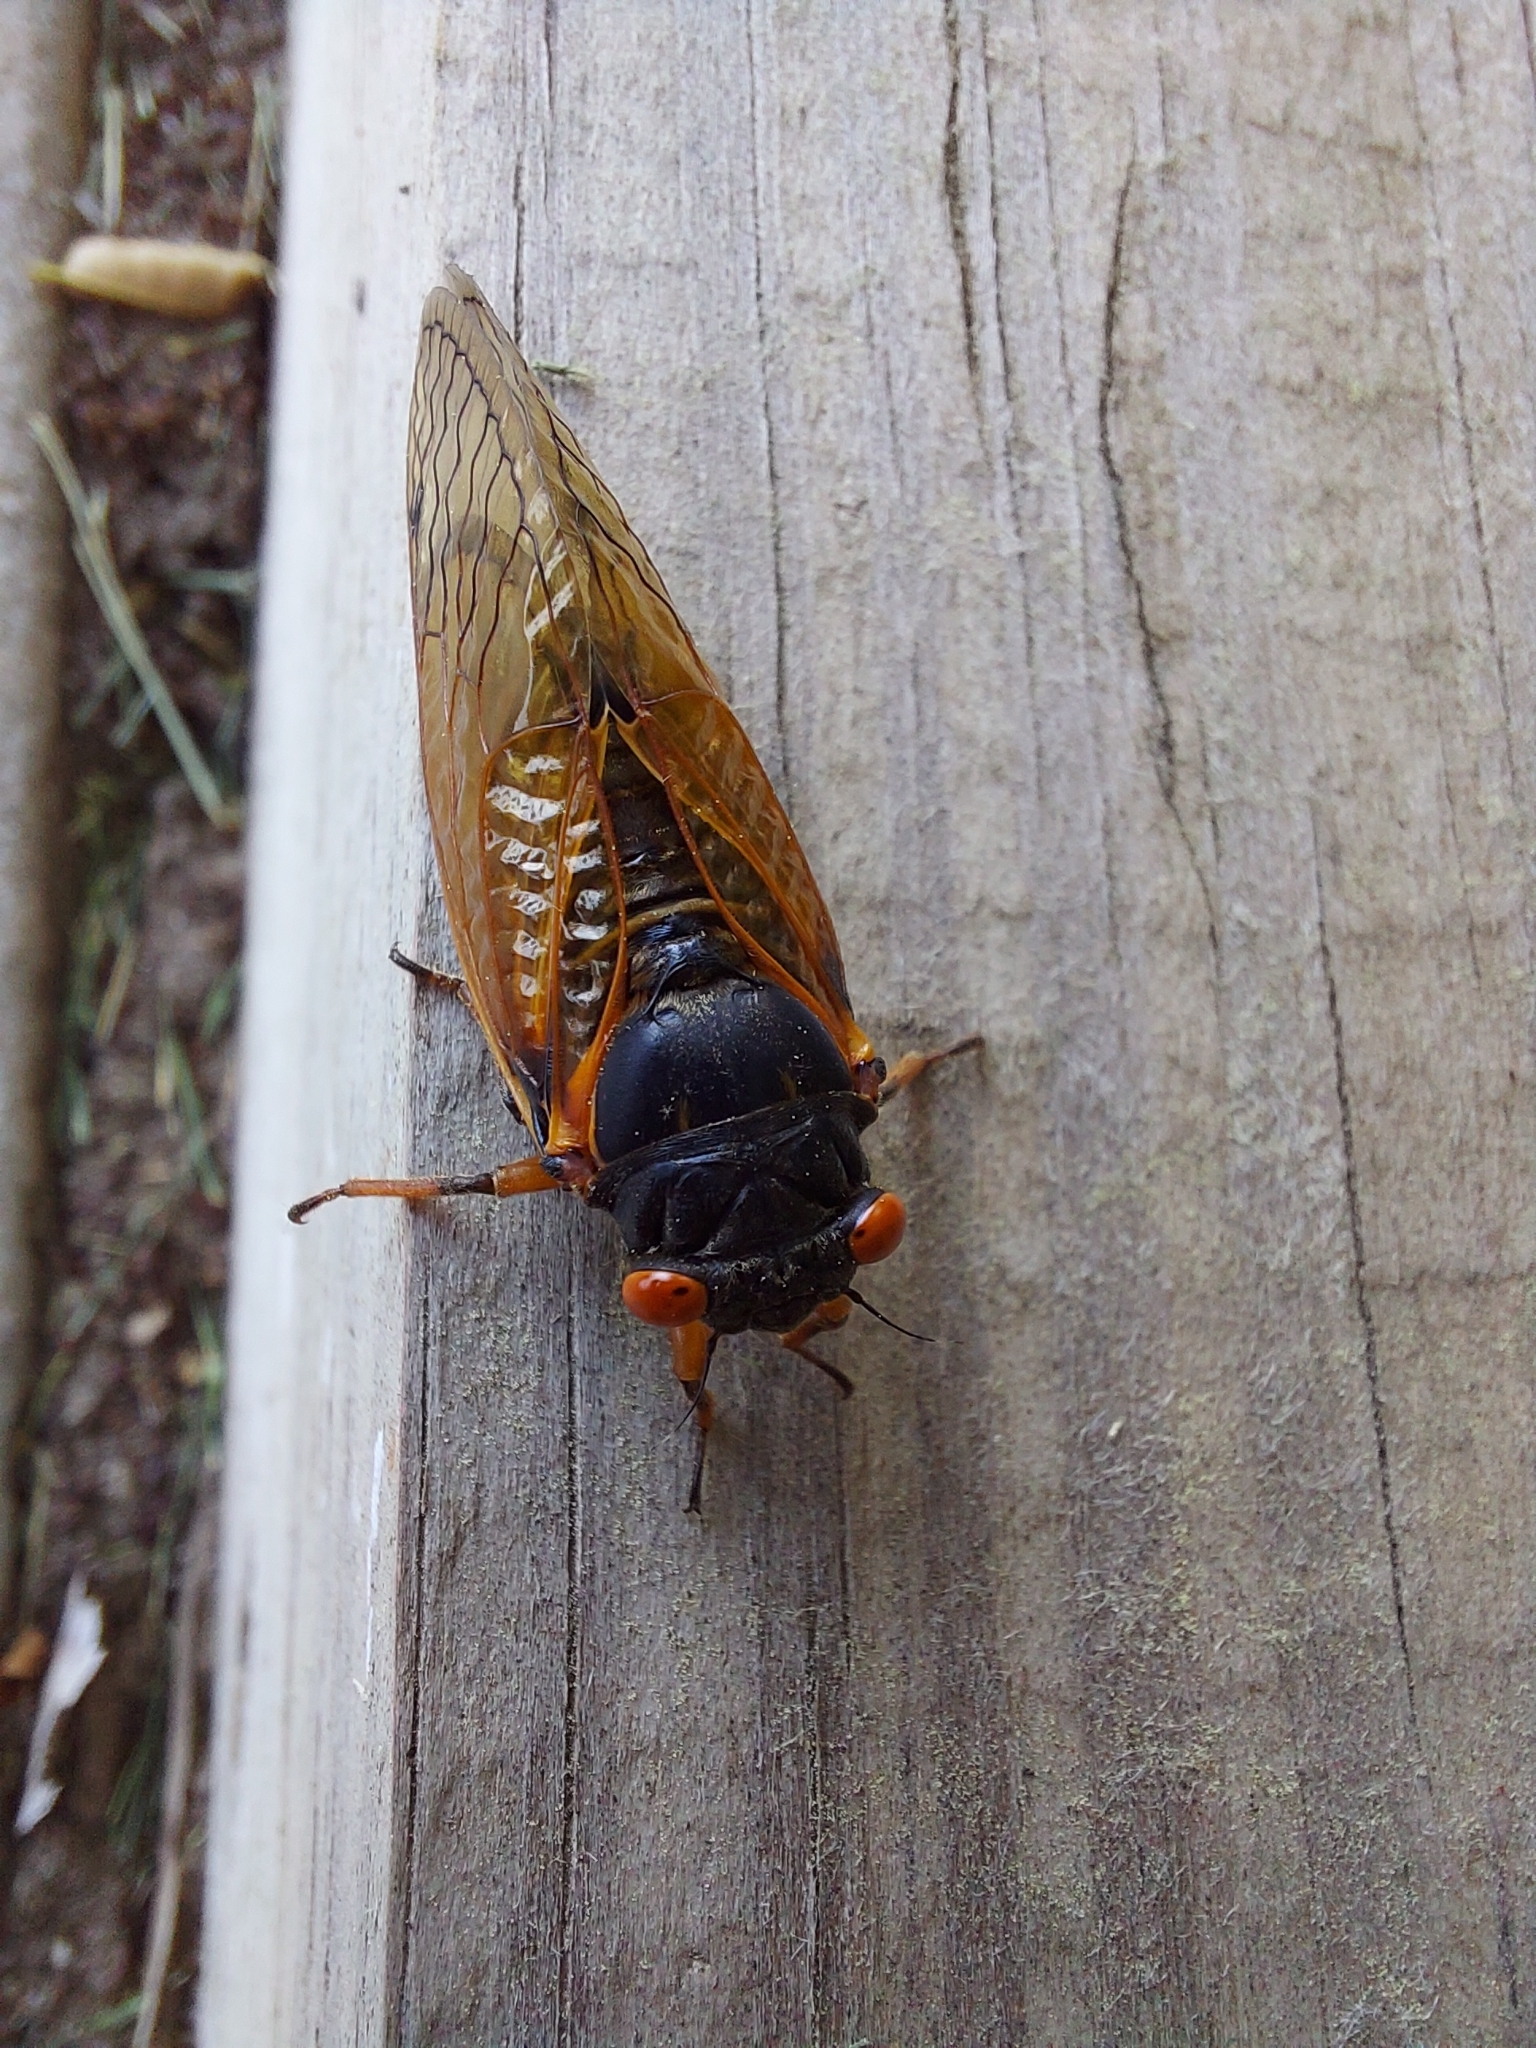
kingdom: Animalia
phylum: Arthropoda
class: Insecta
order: Hemiptera
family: Cicadidae
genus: Magicicada
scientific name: Magicicada cassini
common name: Cassin's 17-year cicada
